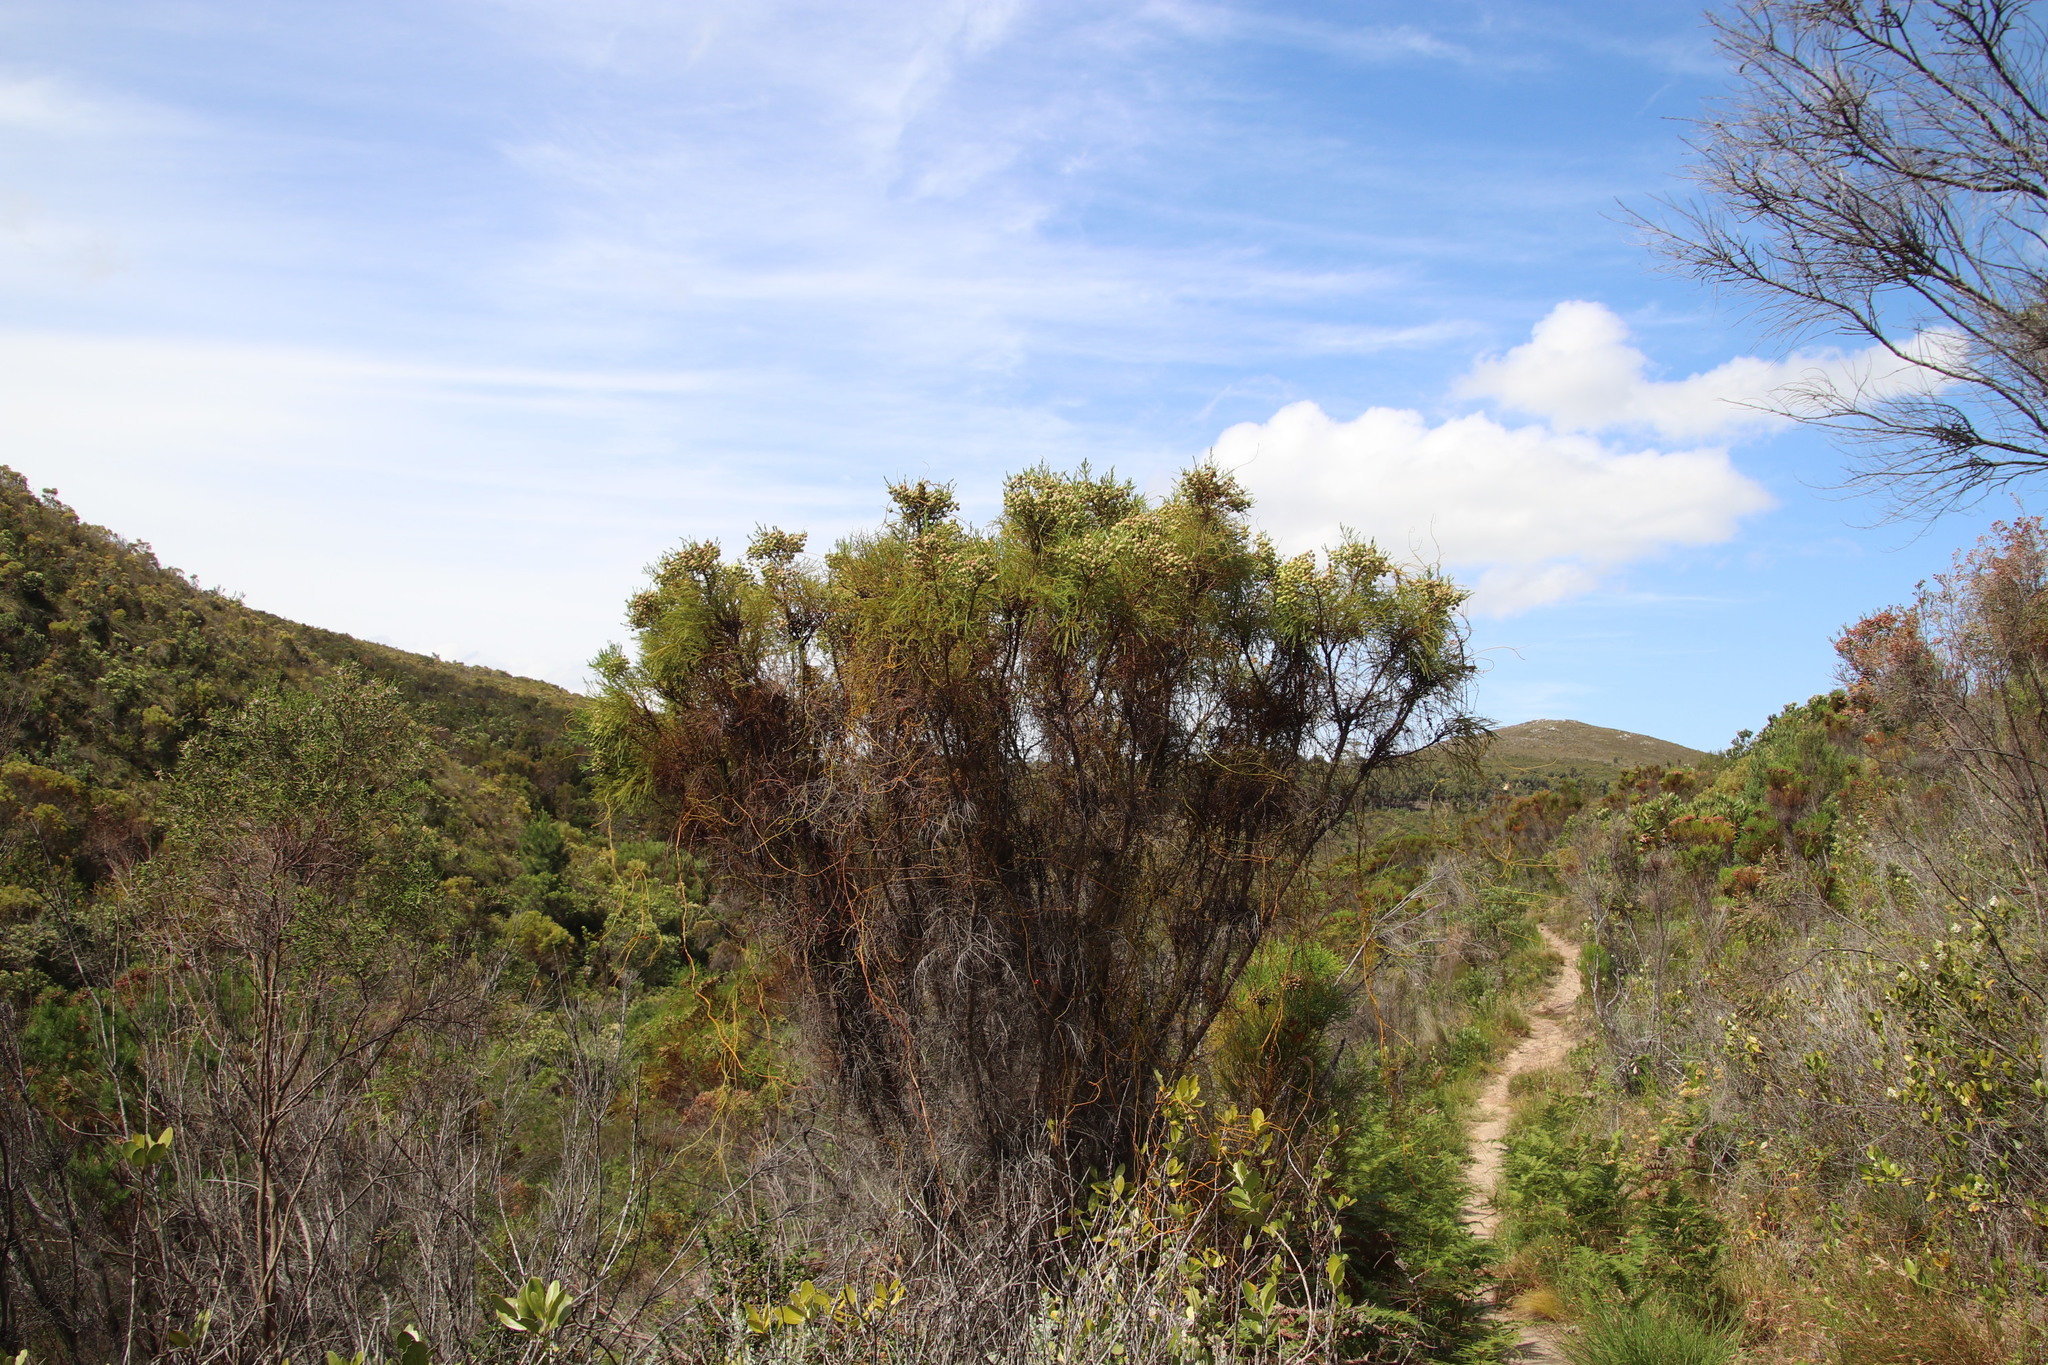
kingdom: Plantae
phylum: Tracheophyta
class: Magnoliopsida
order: Bruniales
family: Bruniaceae
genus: Berzelia
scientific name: Berzelia lanuginosa
